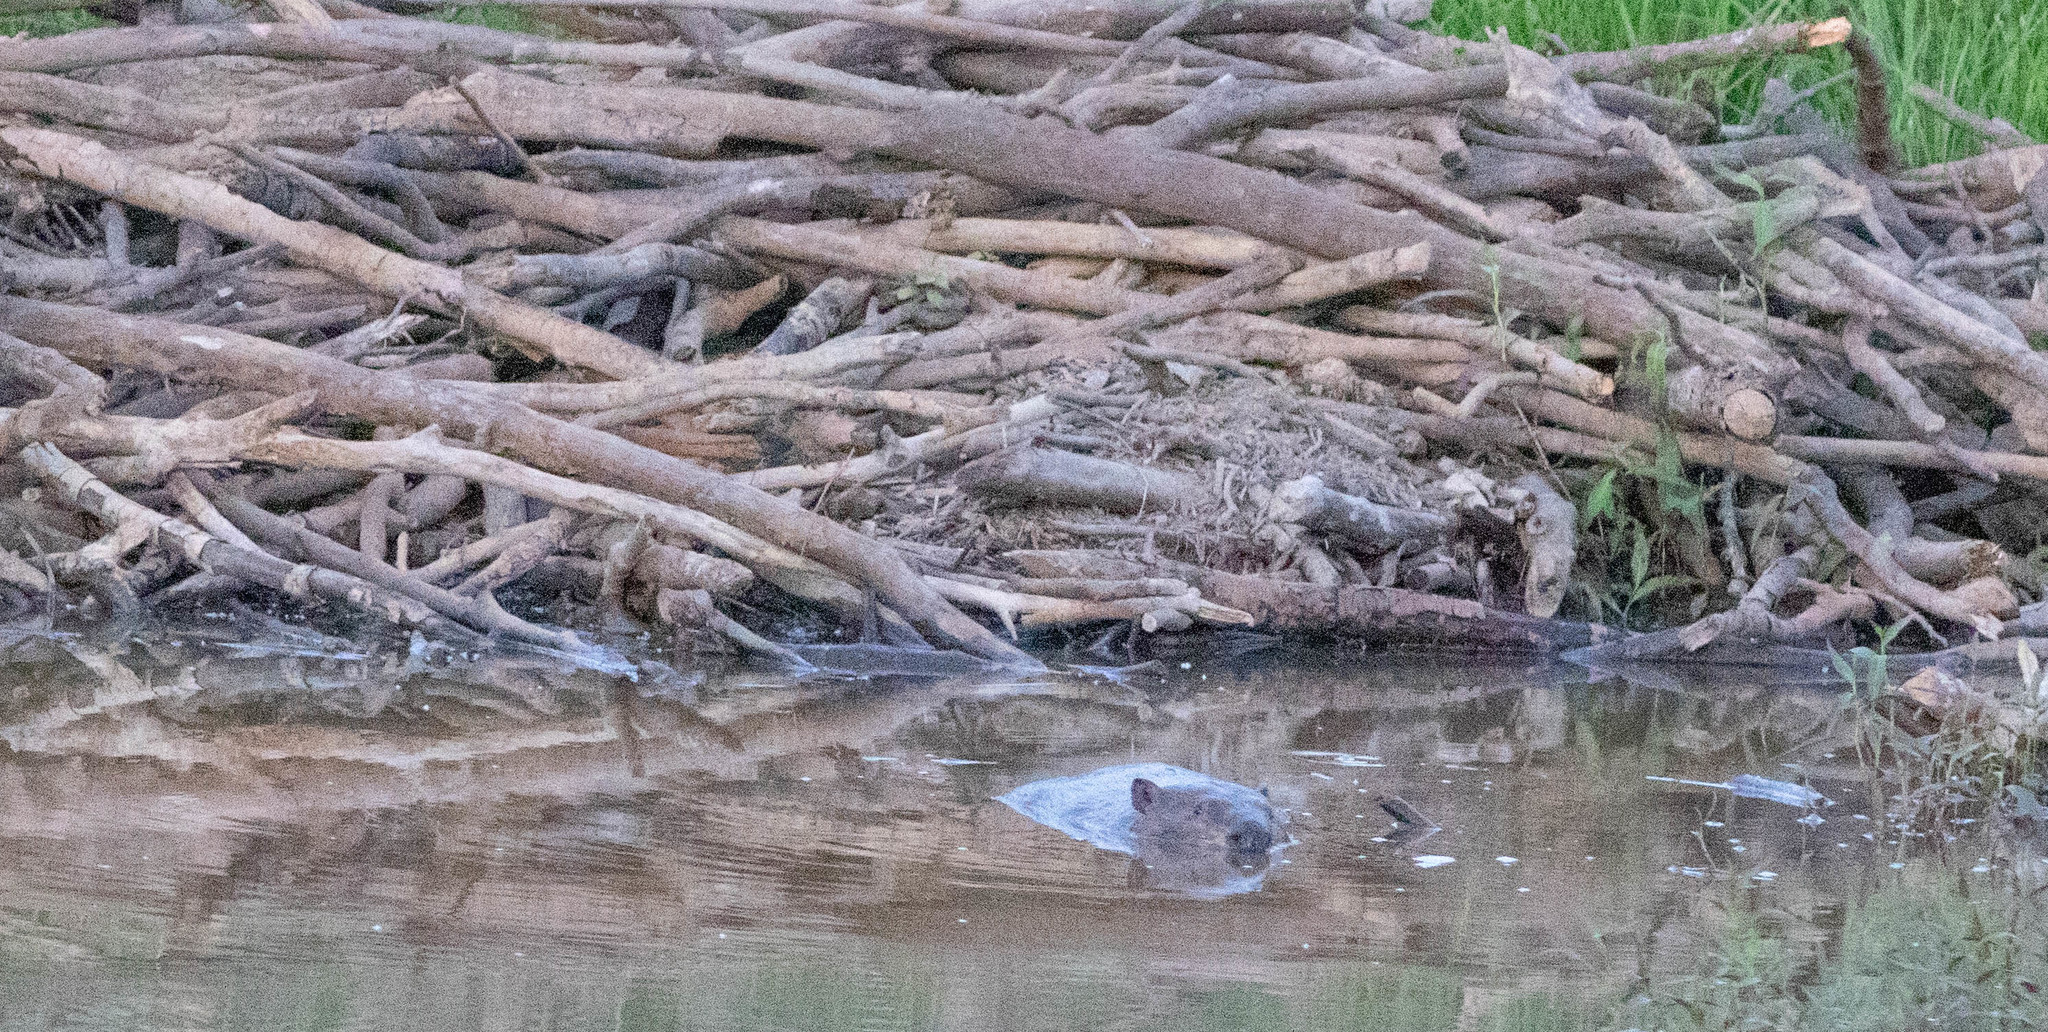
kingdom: Animalia
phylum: Chordata
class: Mammalia
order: Rodentia
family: Castoridae
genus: Castor
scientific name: Castor canadensis
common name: American beaver
